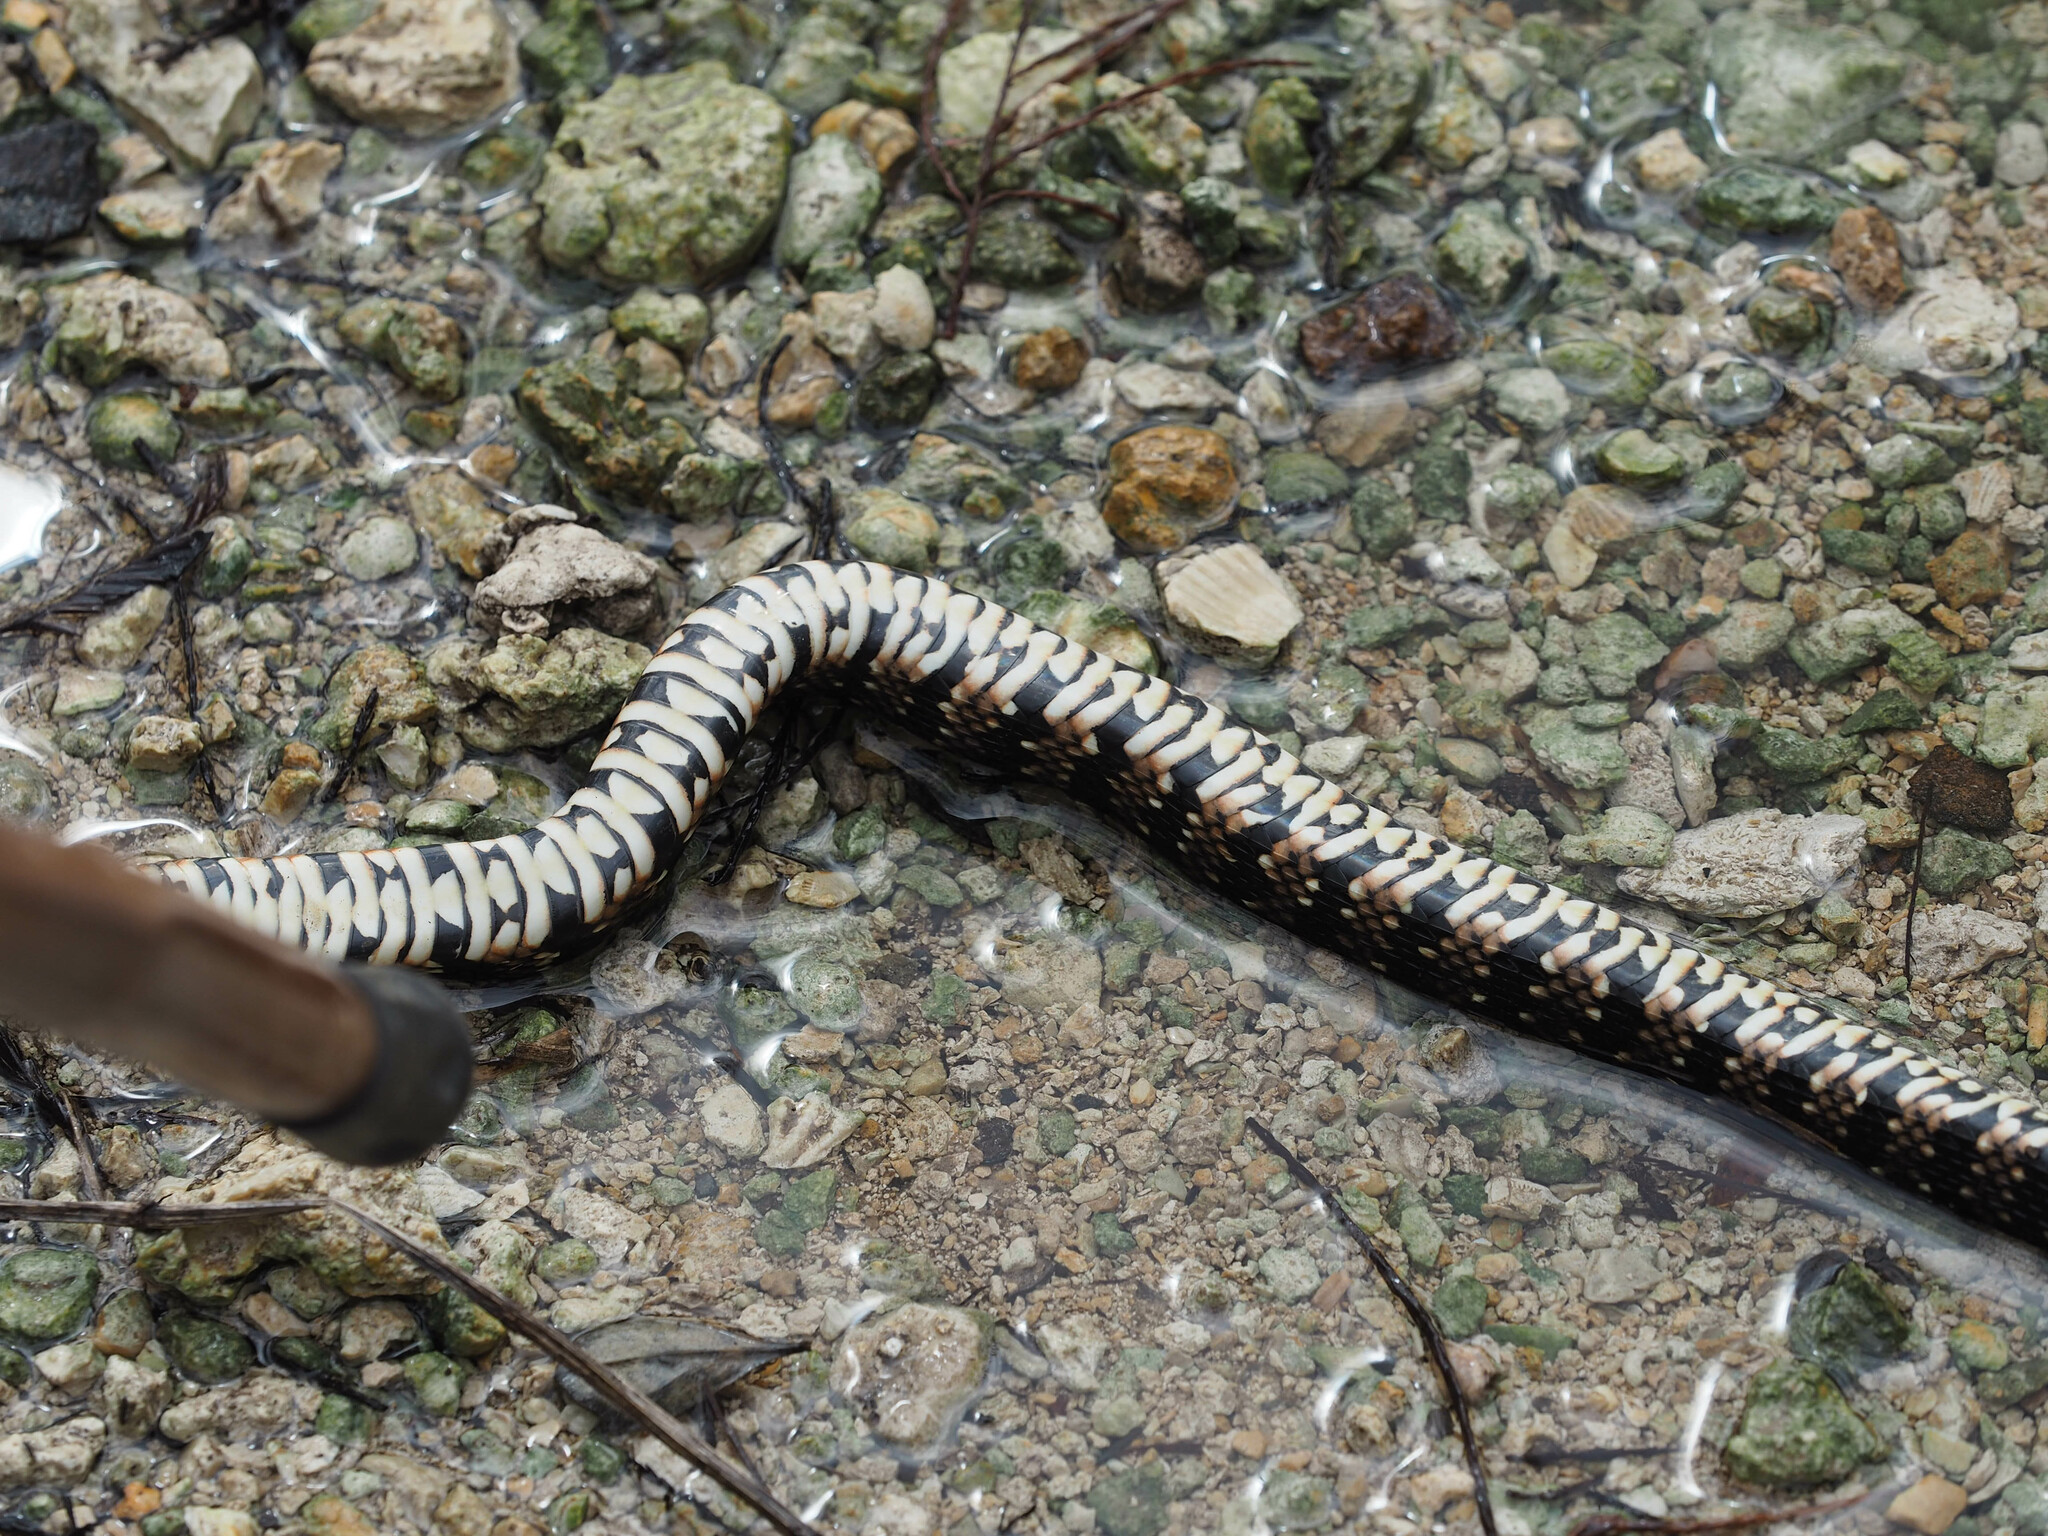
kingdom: Animalia
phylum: Chordata
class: Squamata
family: Colubridae
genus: Nerodia
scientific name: Nerodia fasciata
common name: Southern water snake
